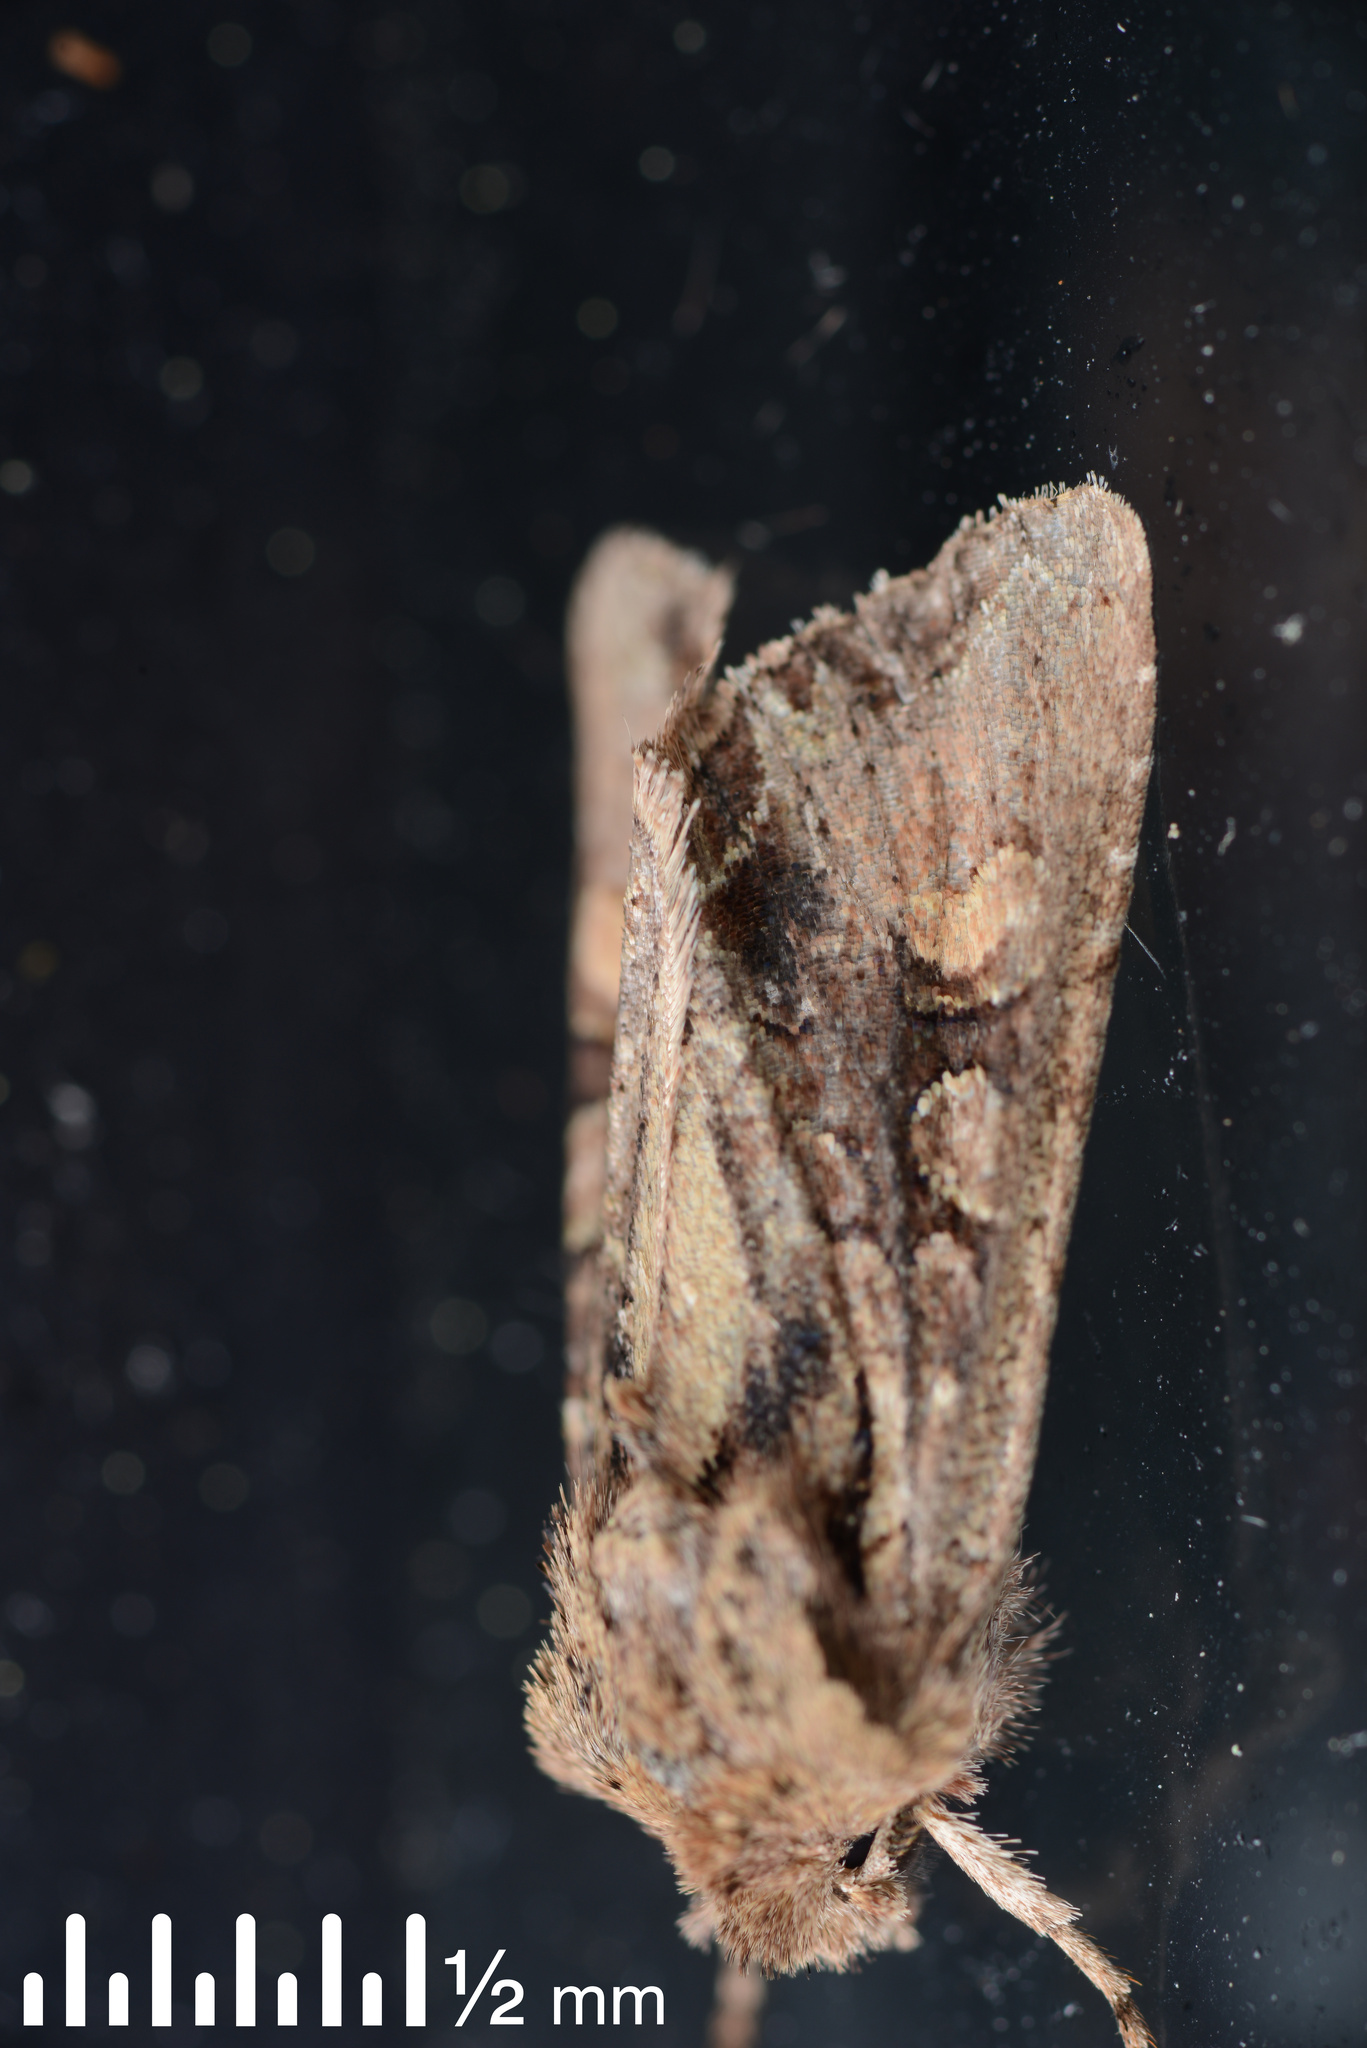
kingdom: Animalia
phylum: Arthropoda
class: Insecta
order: Lepidoptera
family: Noctuidae
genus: Ichneutica
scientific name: Ichneutica insignis
